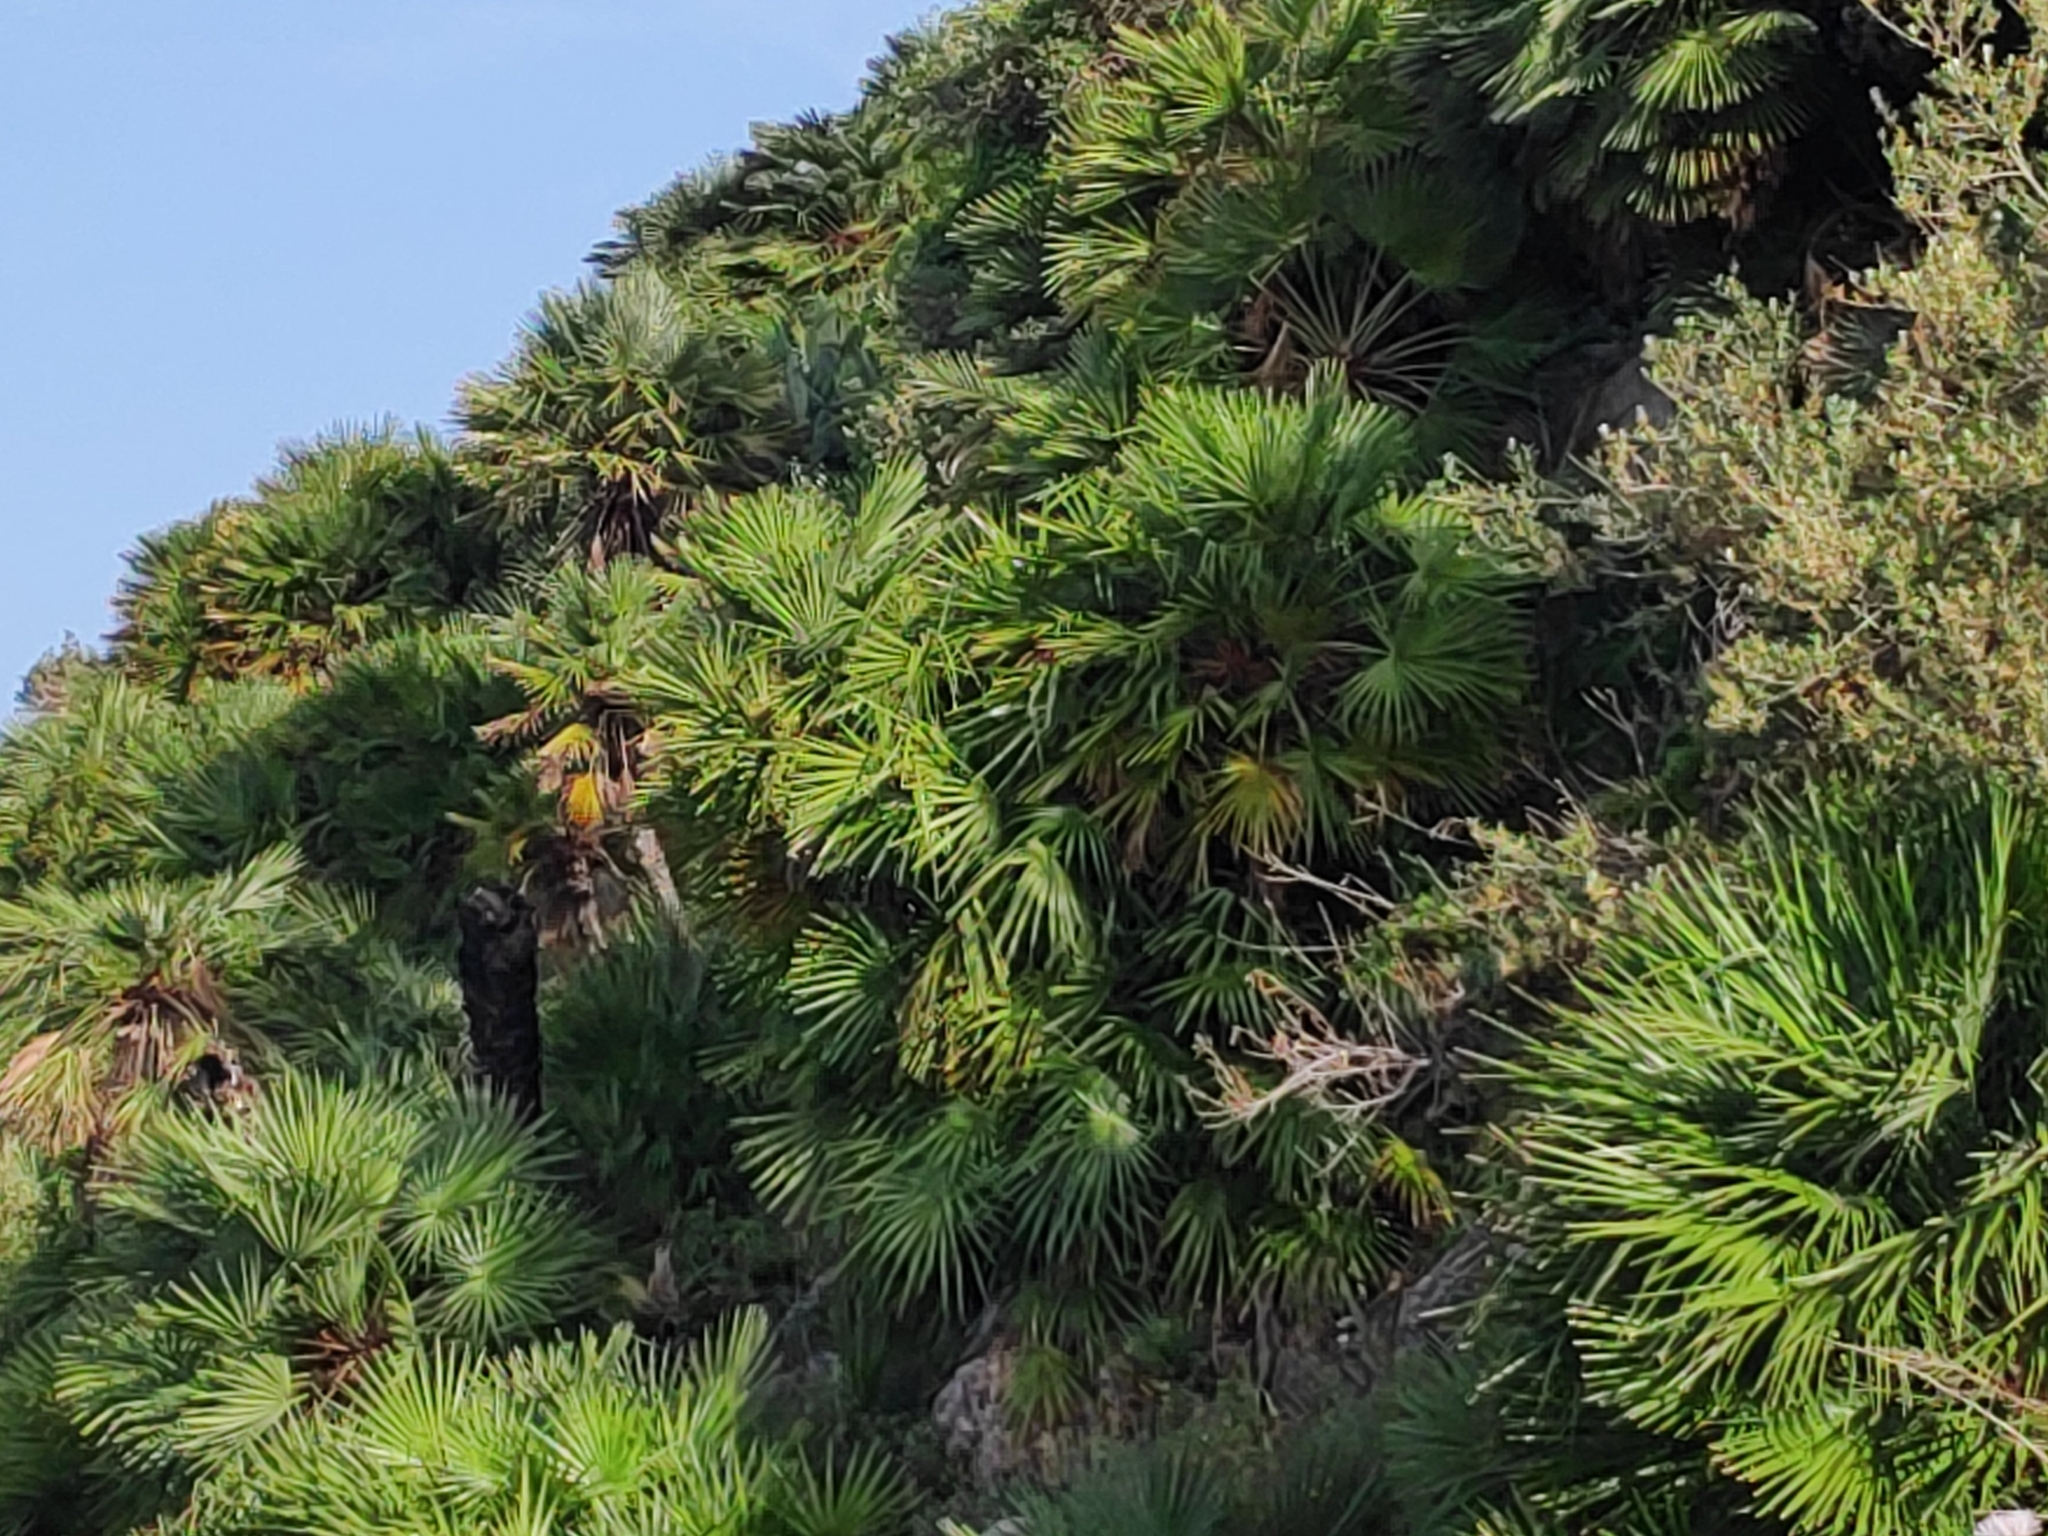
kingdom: Plantae
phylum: Tracheophyta
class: Liliopsida
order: Arecales
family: Arecaceae
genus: Chamaerops
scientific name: Chamaerops humilis
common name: Dwarf fan palm
